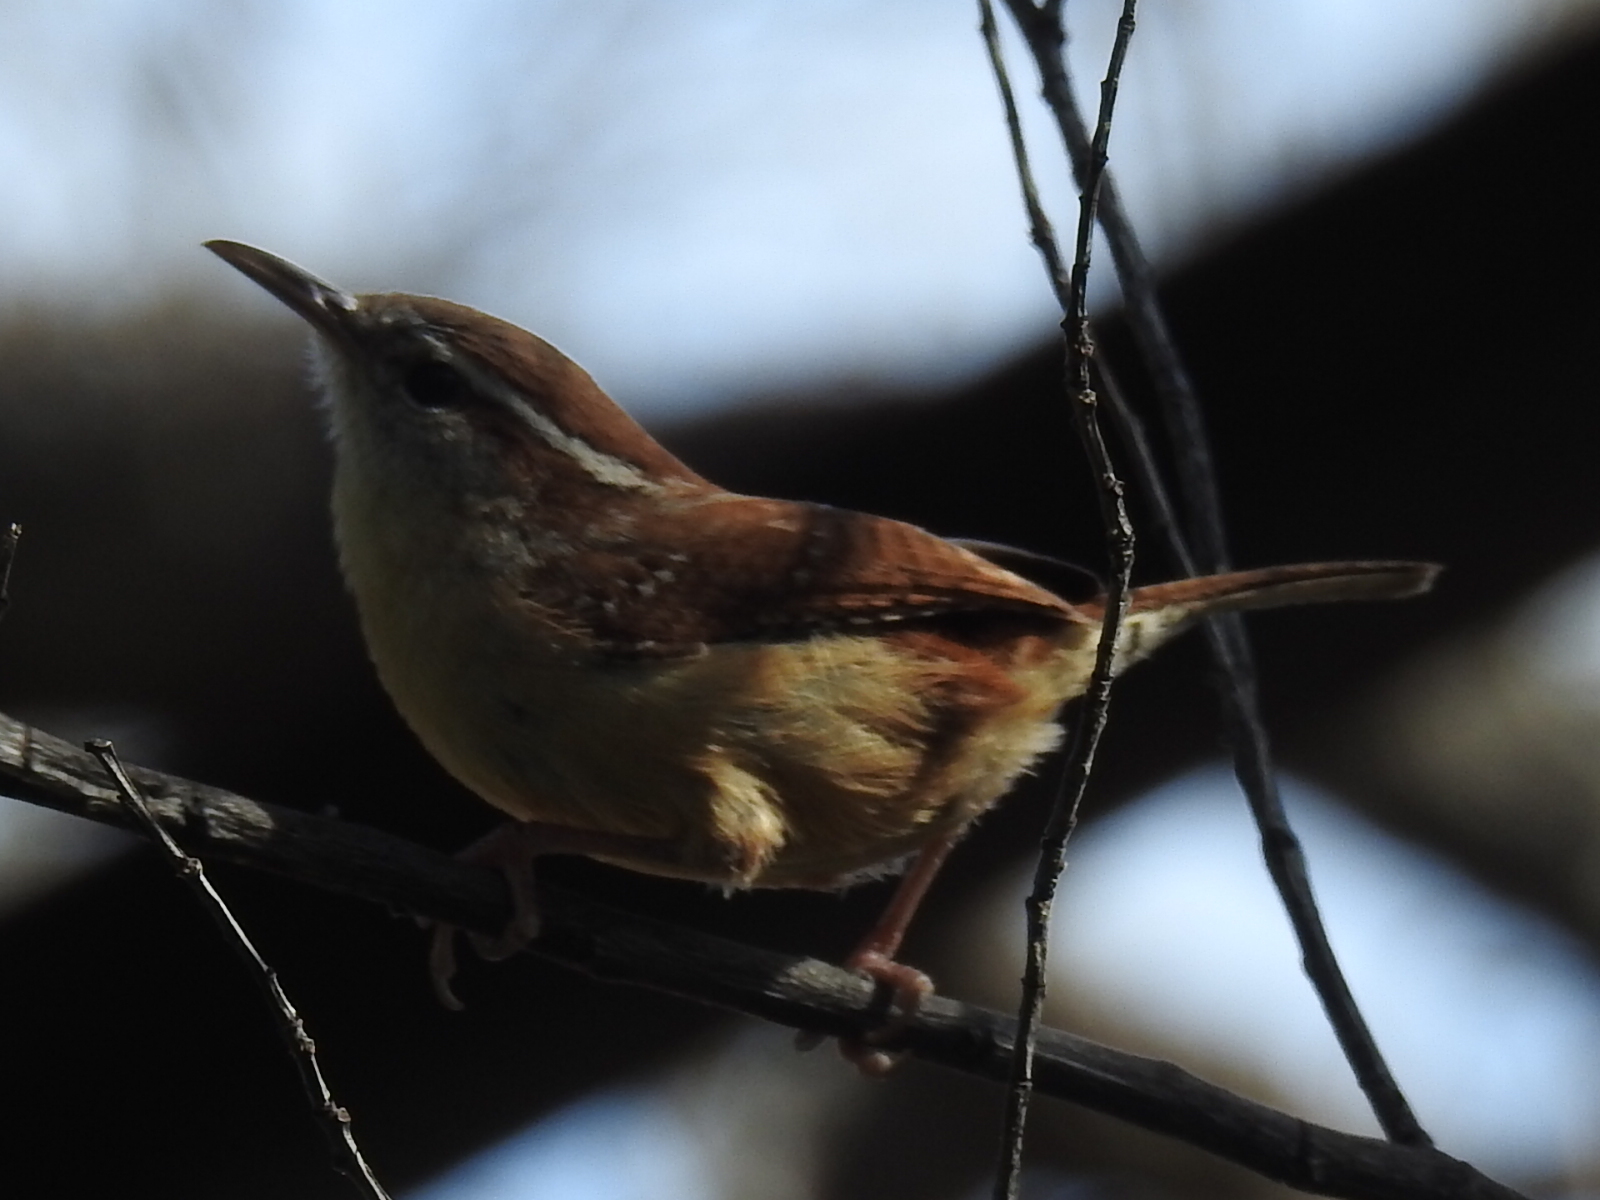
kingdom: Animalia
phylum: Chordata
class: Aves
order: Passeriformes
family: Troglodytidae
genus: Thryothorus
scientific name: Thryothorus ludovicianus
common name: Carolina wren
